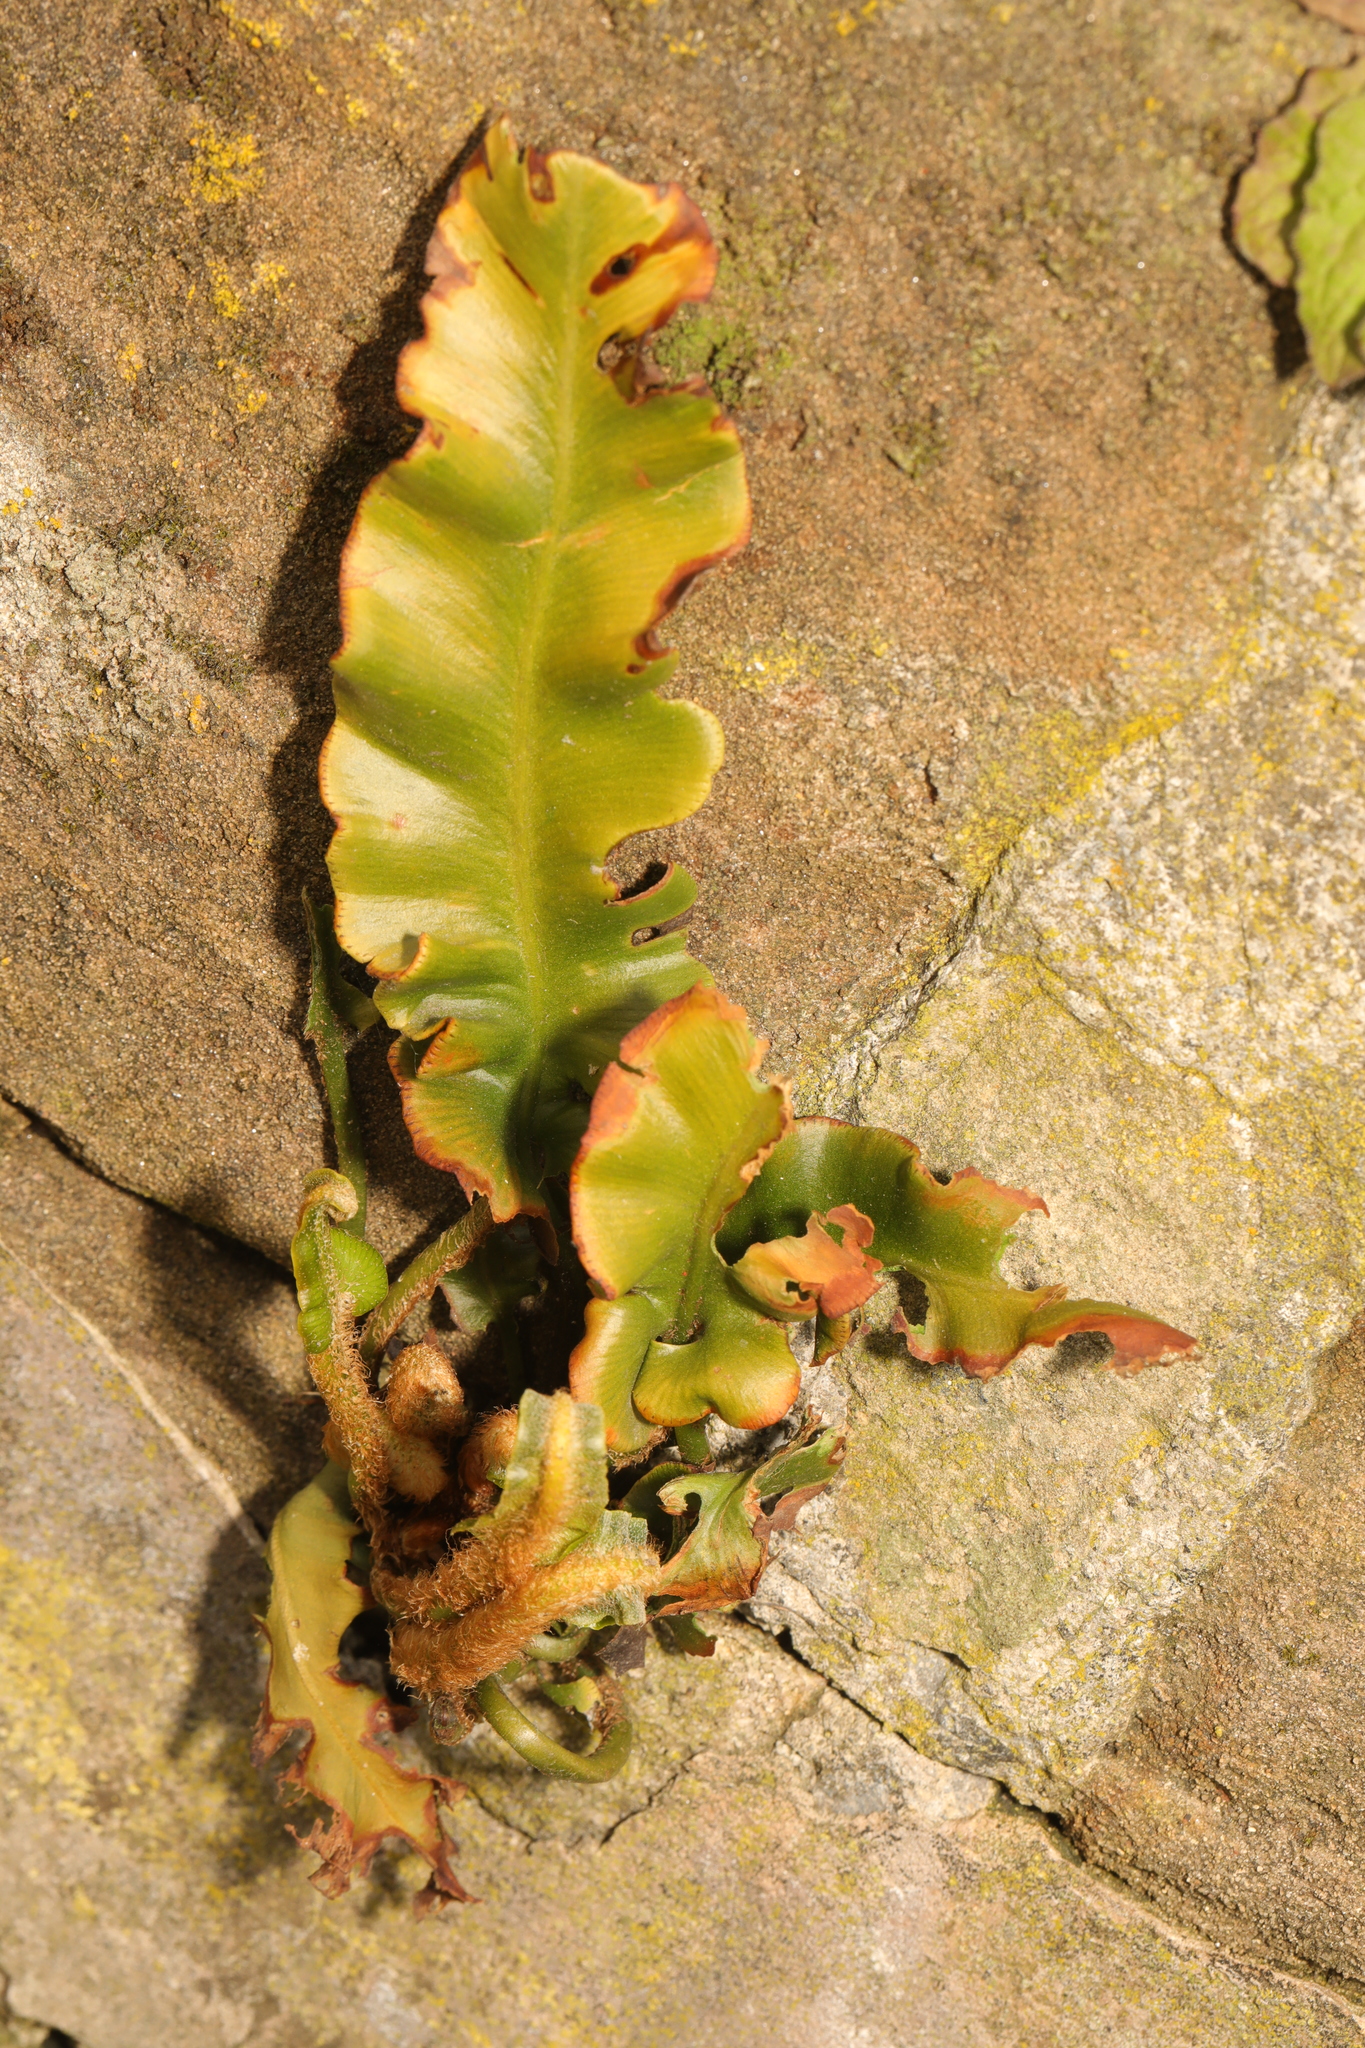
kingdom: Plantae
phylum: Tracheophyta
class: Polypodiopsida
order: Polypodiales
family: Aspleniaceae
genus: Asplenium
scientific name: Asplenium scolopendrium
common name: Hart's-tongue fern
